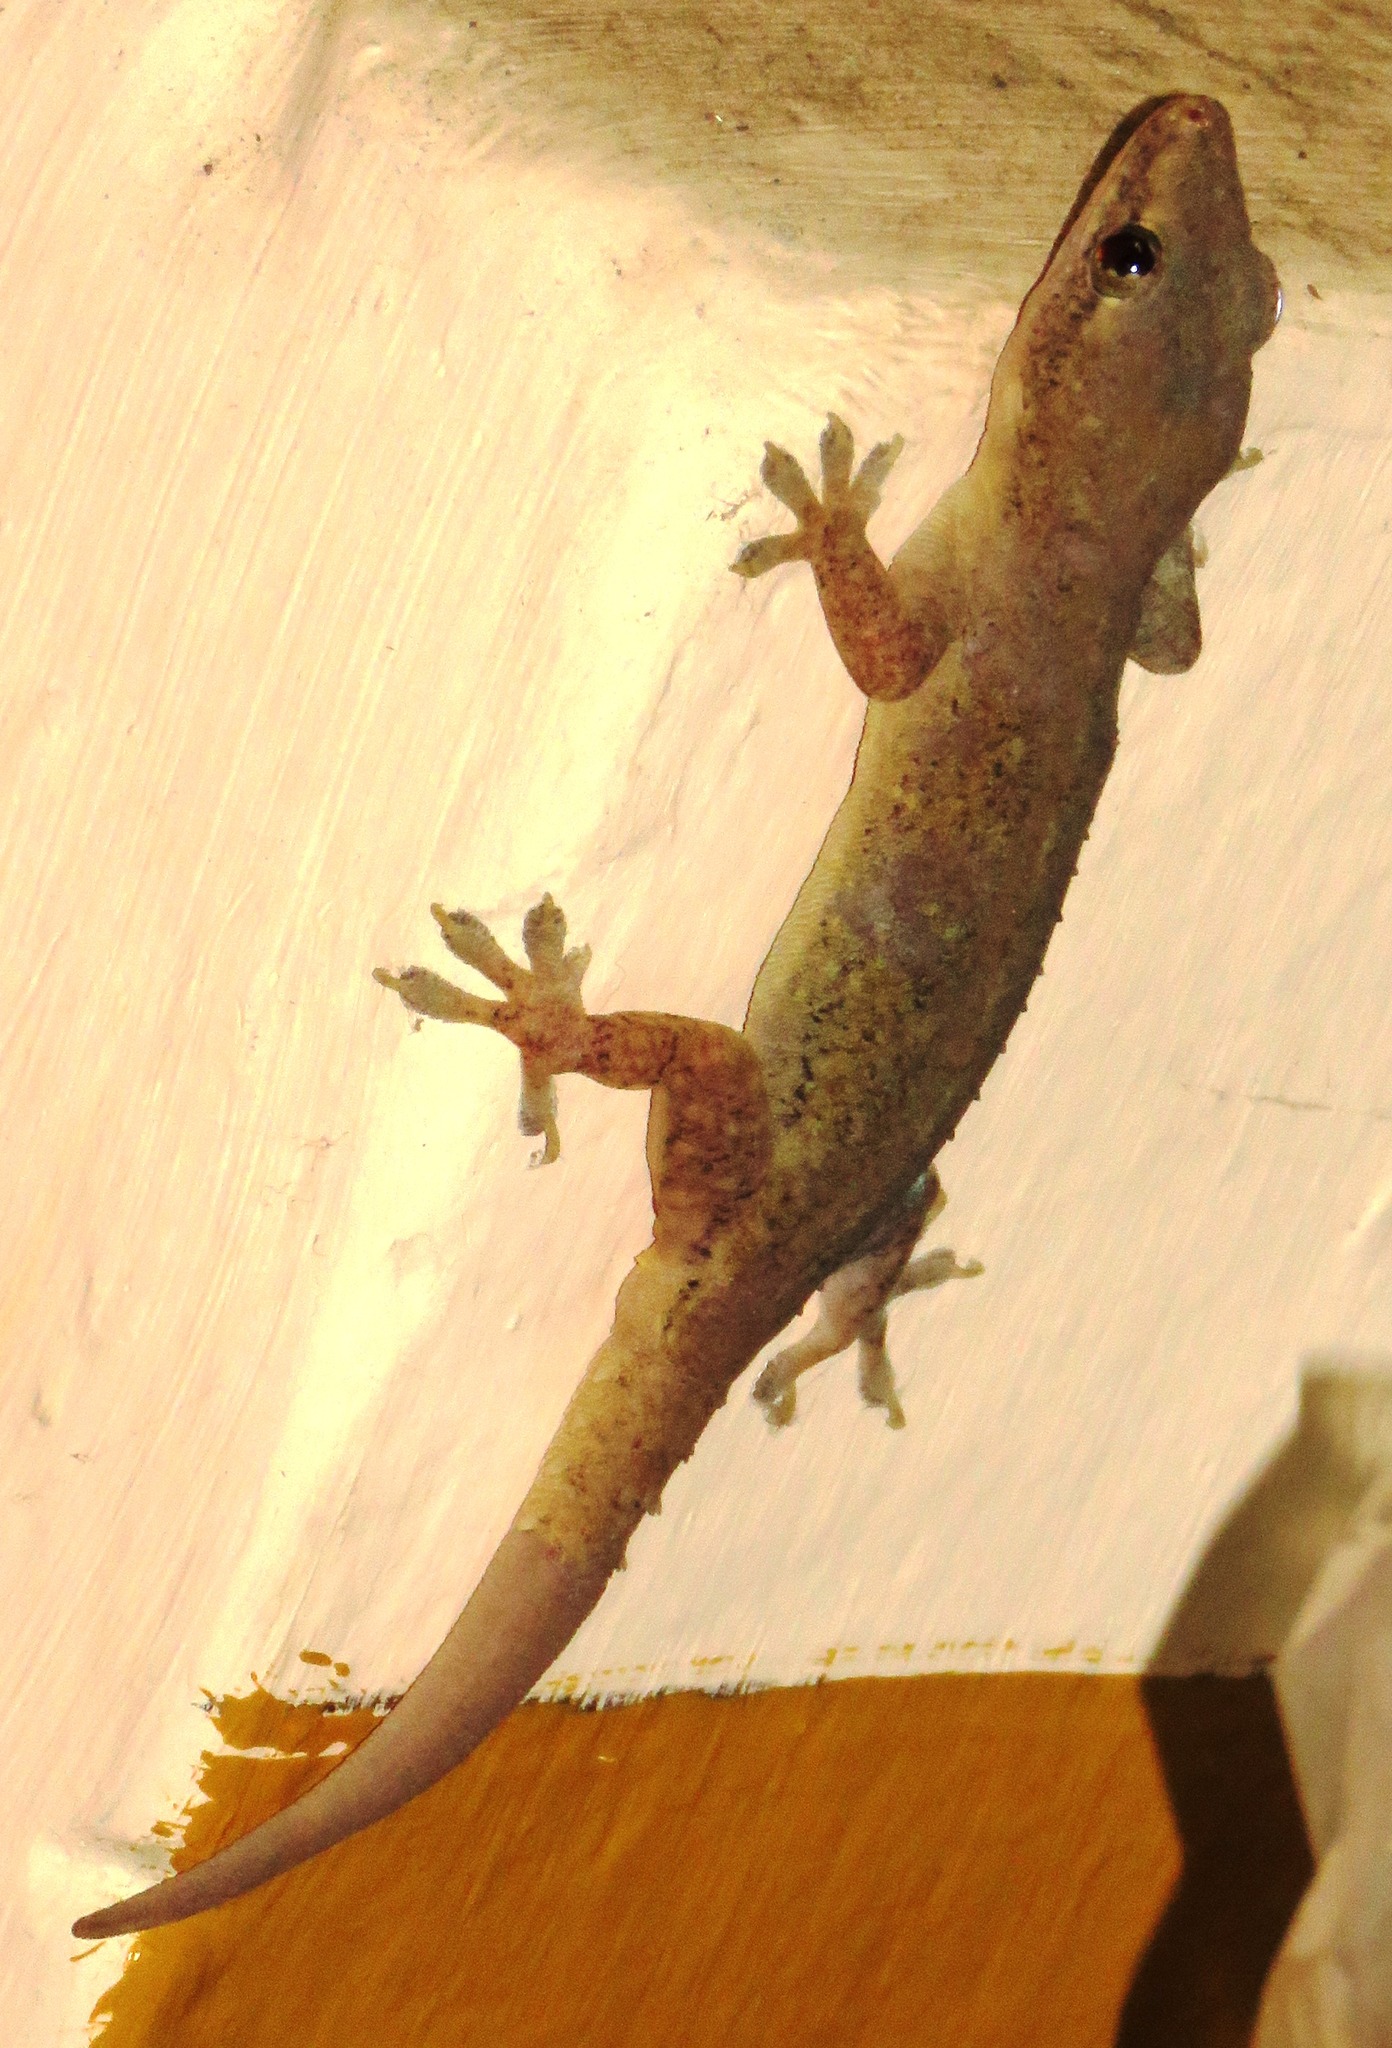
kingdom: Animalia
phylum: Chordata
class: Squamata
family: Gekkonidae
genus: Hemidactylus
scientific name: Hemidactylus frenatus
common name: Common house gecko
